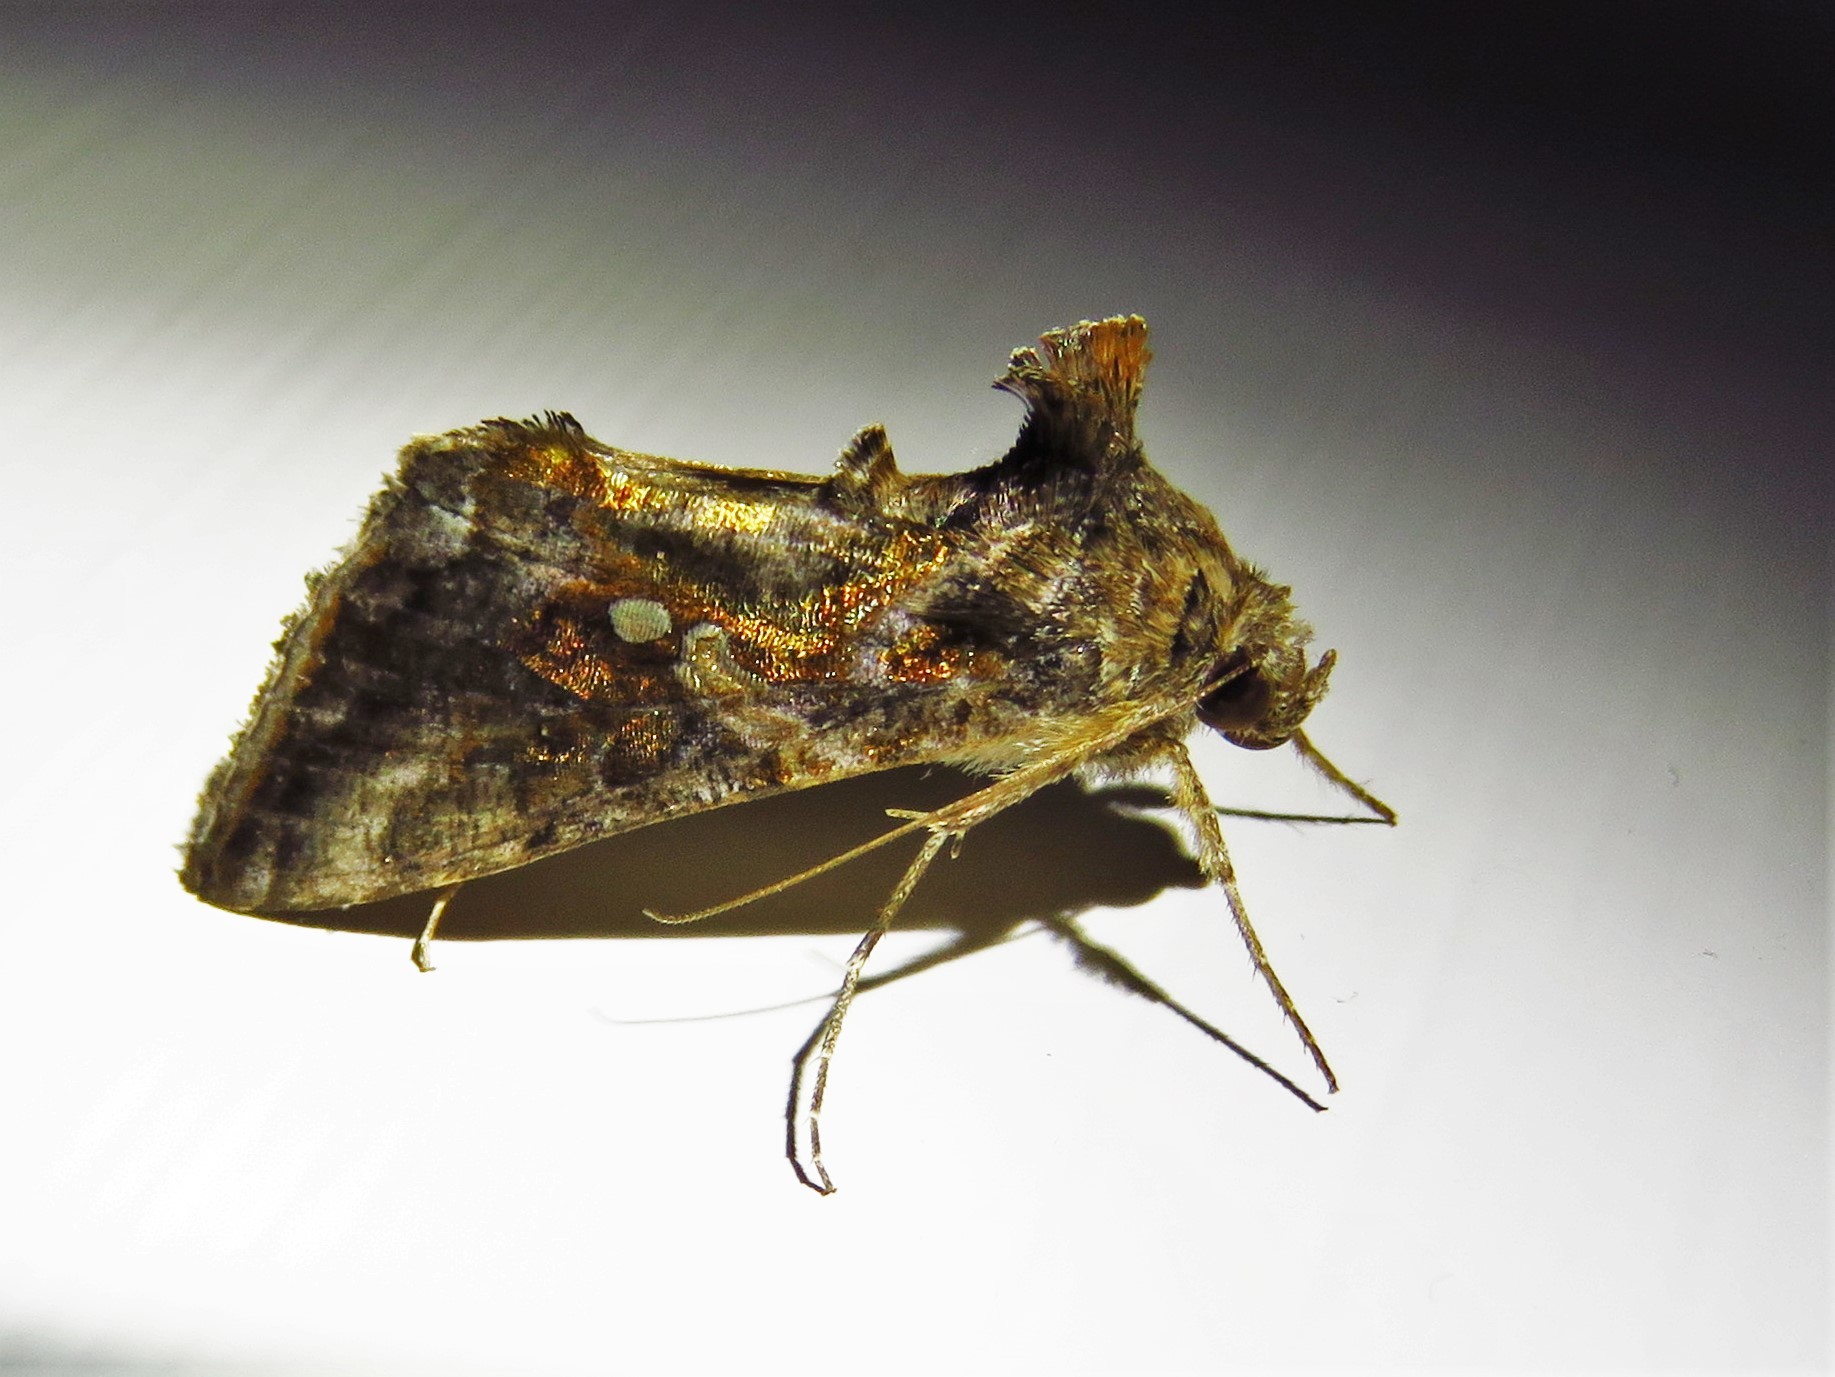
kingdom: Animalia
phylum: Arthropoda
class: Insecta
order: Lepidoptera
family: Noctuidae
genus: Chrysodeixis
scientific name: Chrysodeixis includens
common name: Cutworm moth
